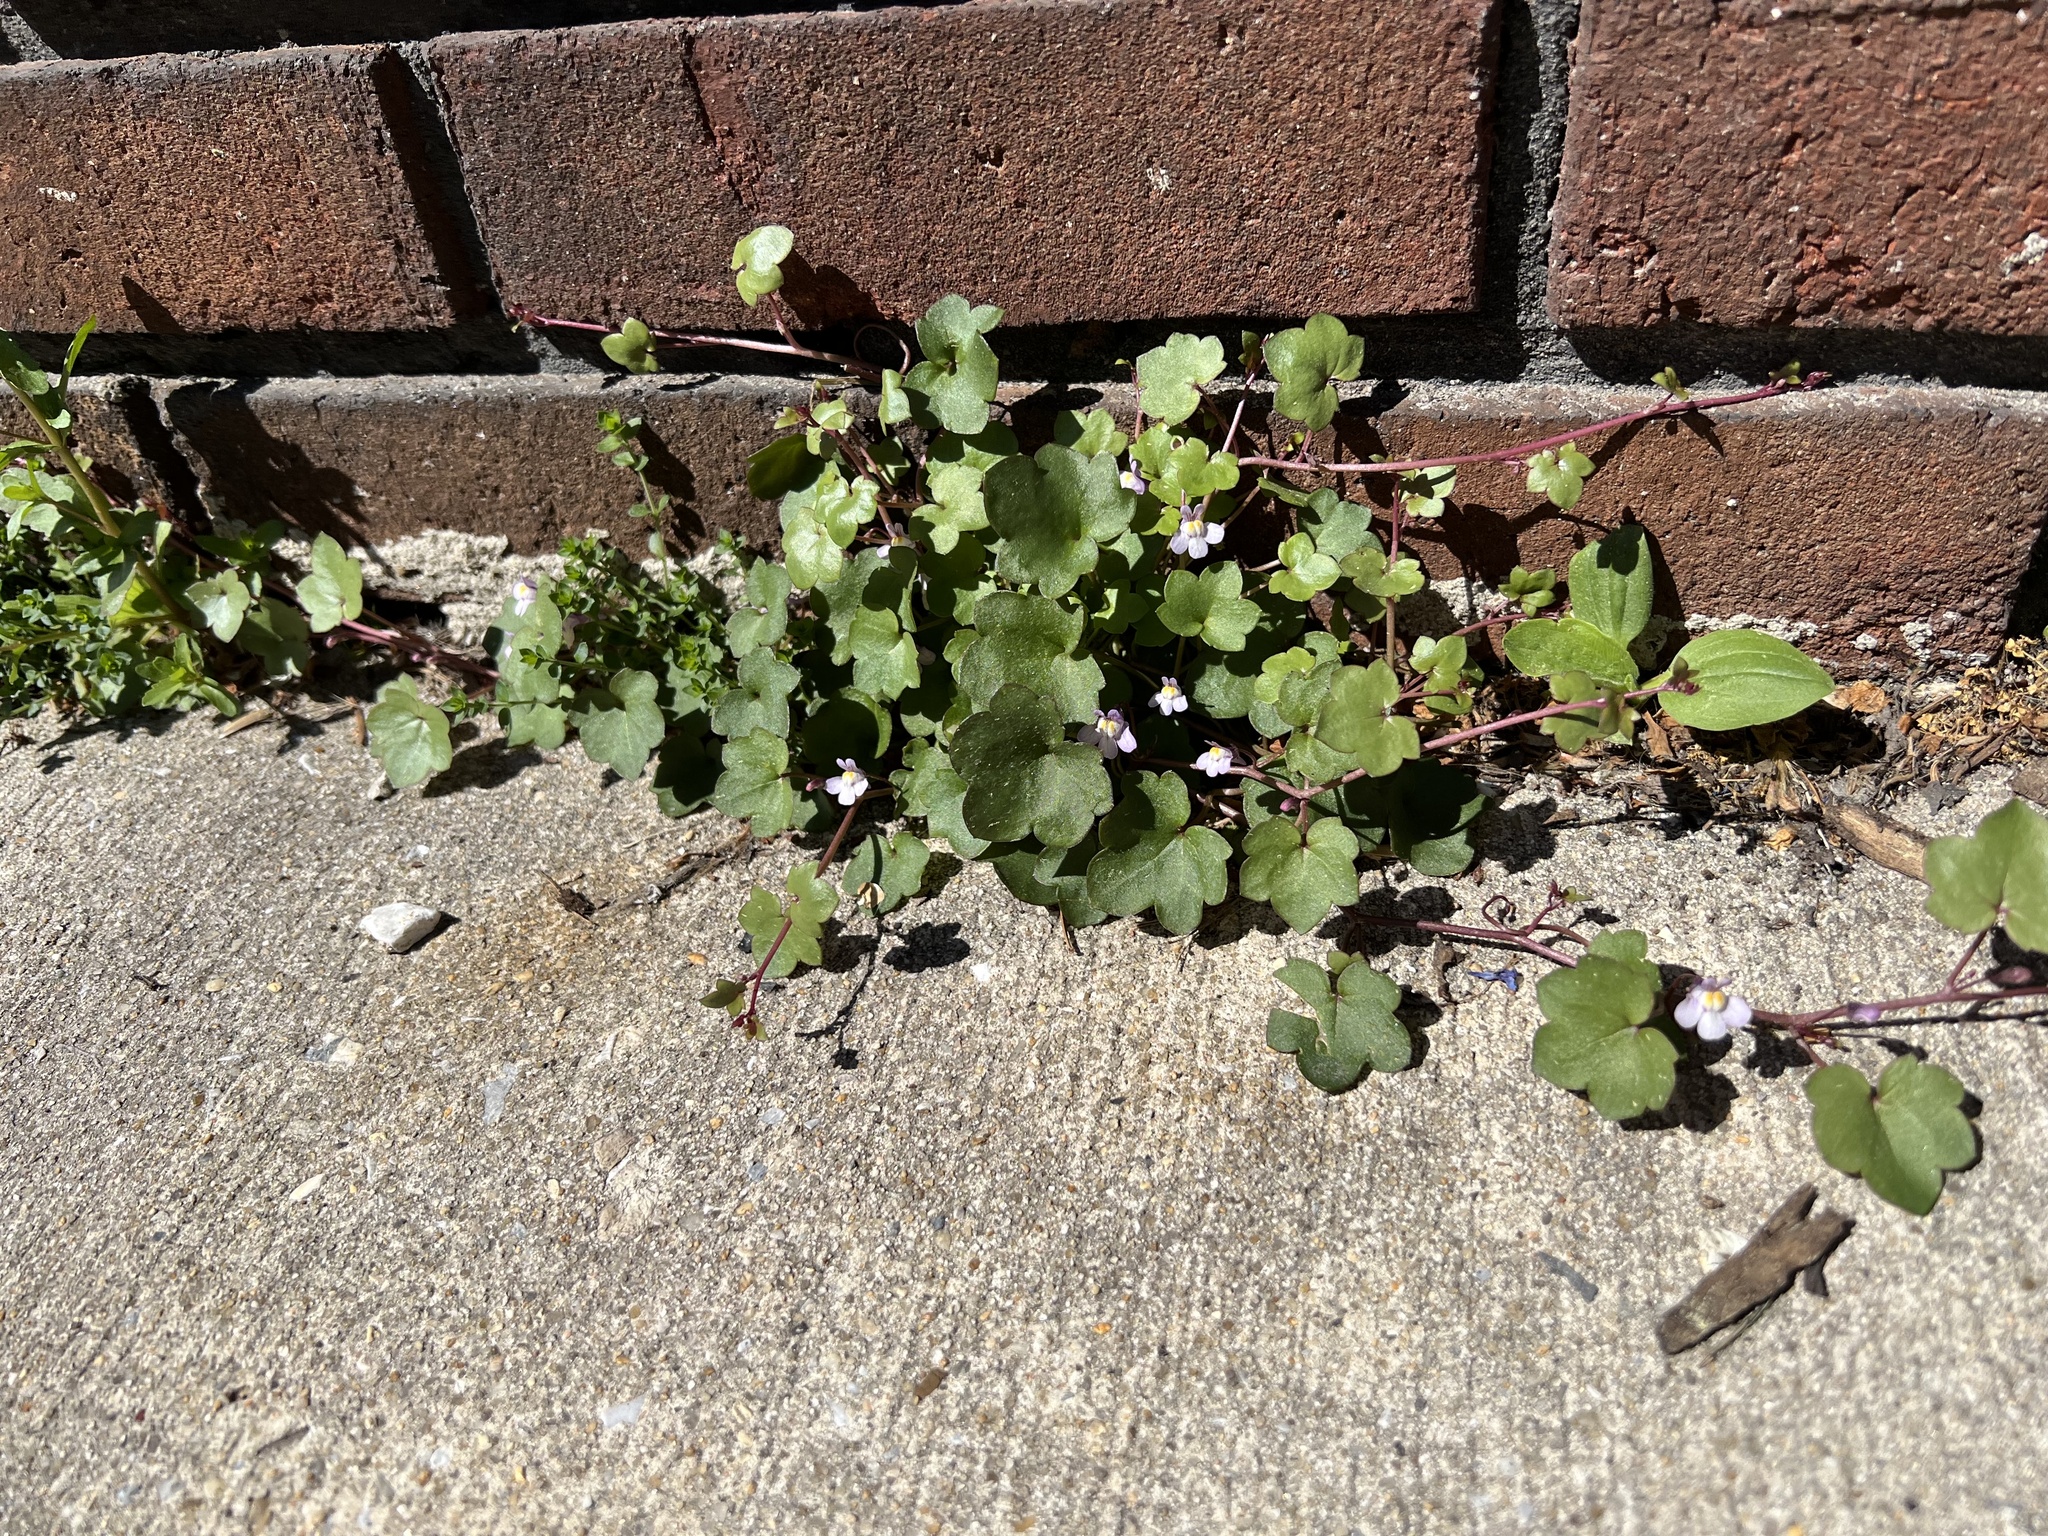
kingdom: Plantae
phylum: Tracheophyta
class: Magnoliopsida
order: Lamiales
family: Plantaginaceae
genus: Cymbalaria
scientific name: Cymbalaria muralis
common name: Ivy-leaved toadflax
